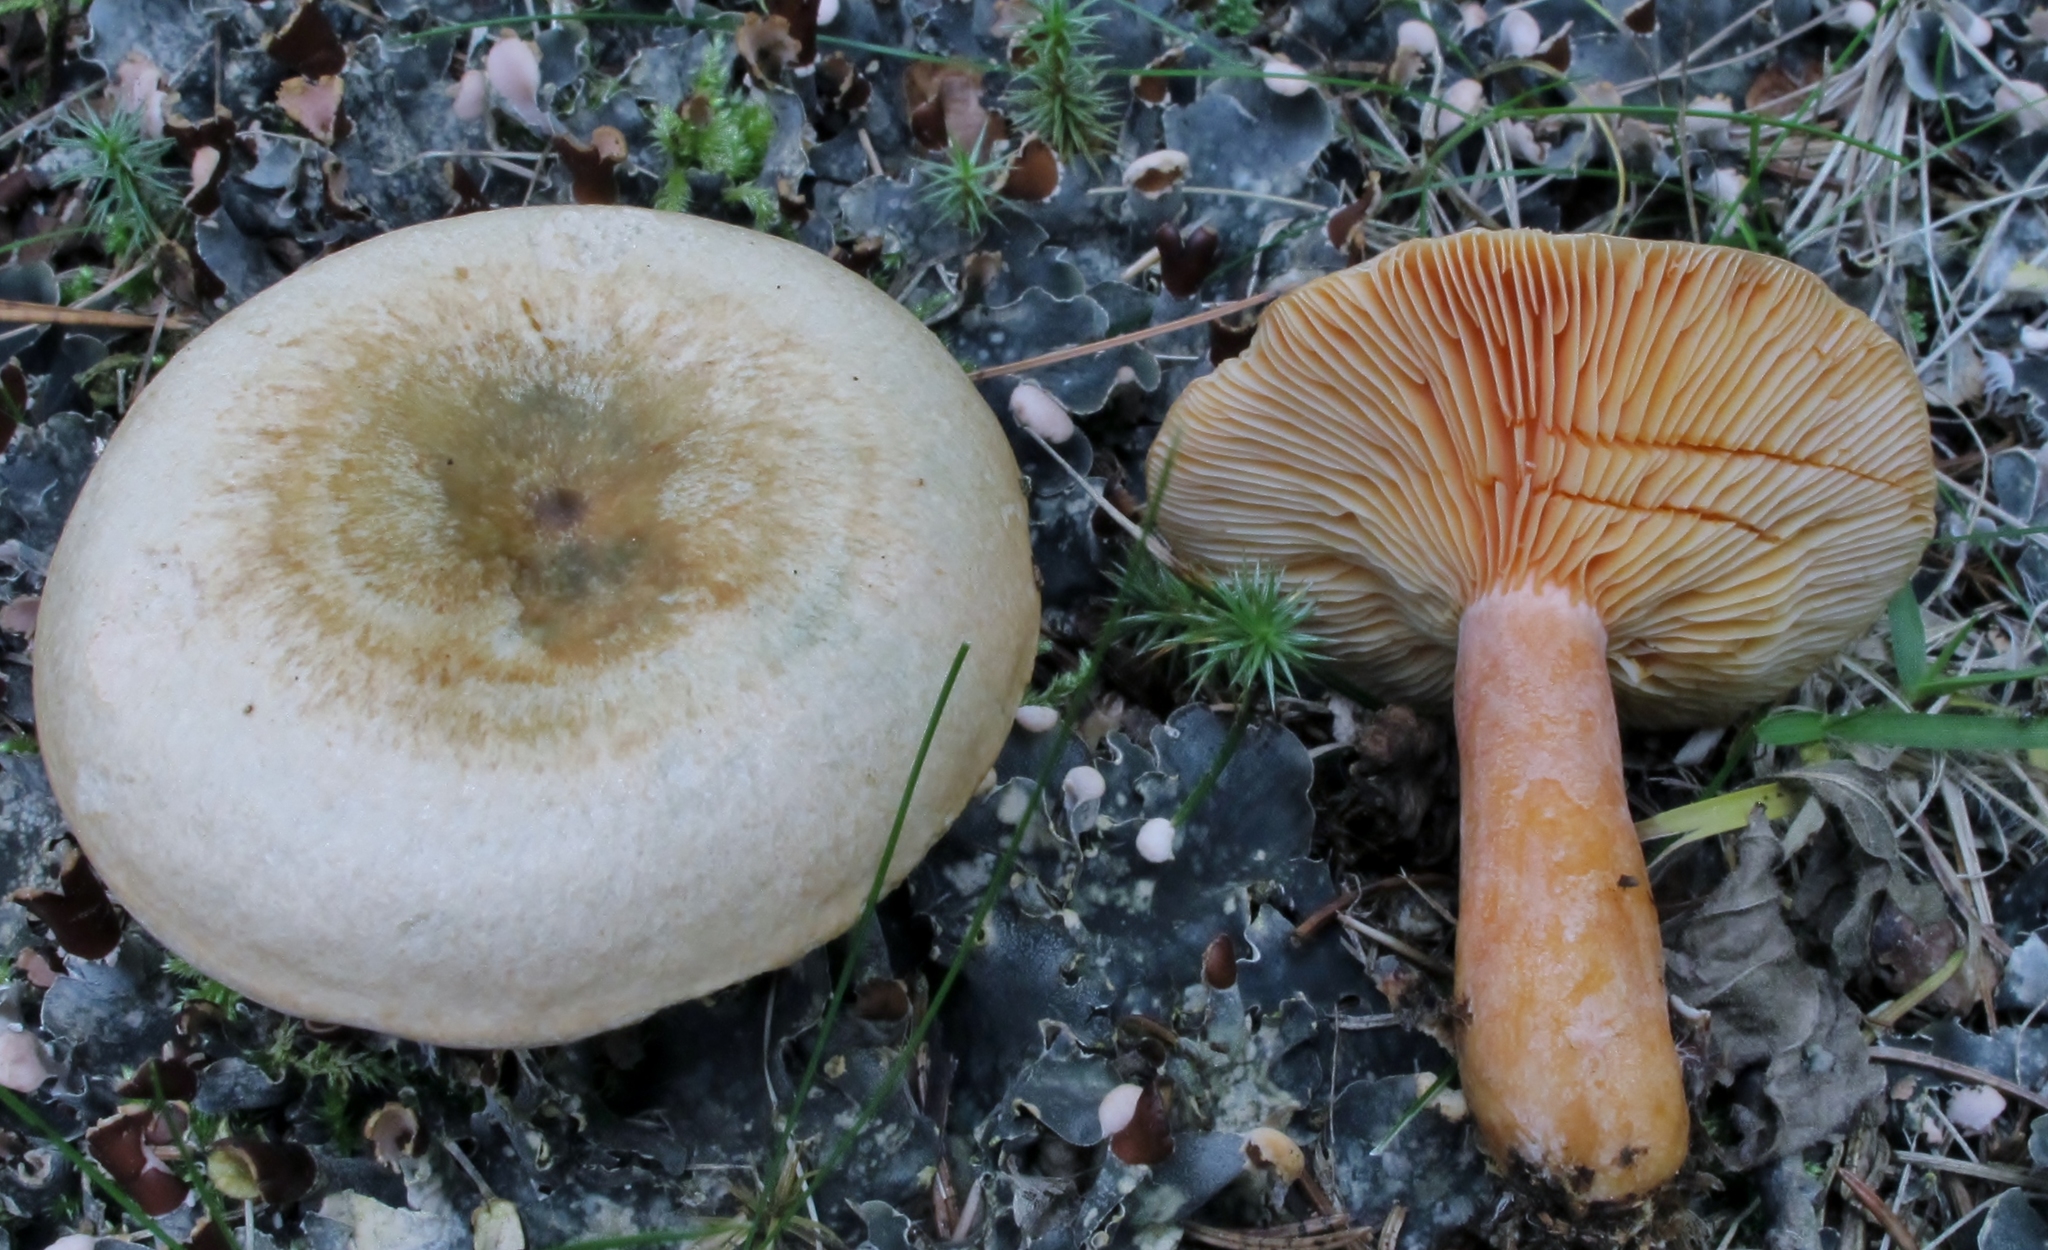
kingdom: Fungi
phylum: Basidiomycota
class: Agaricomycetes
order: Russulales
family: Russulaceae
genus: Lactarius
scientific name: Lactarius deterrimus
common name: False saffron milkcap
